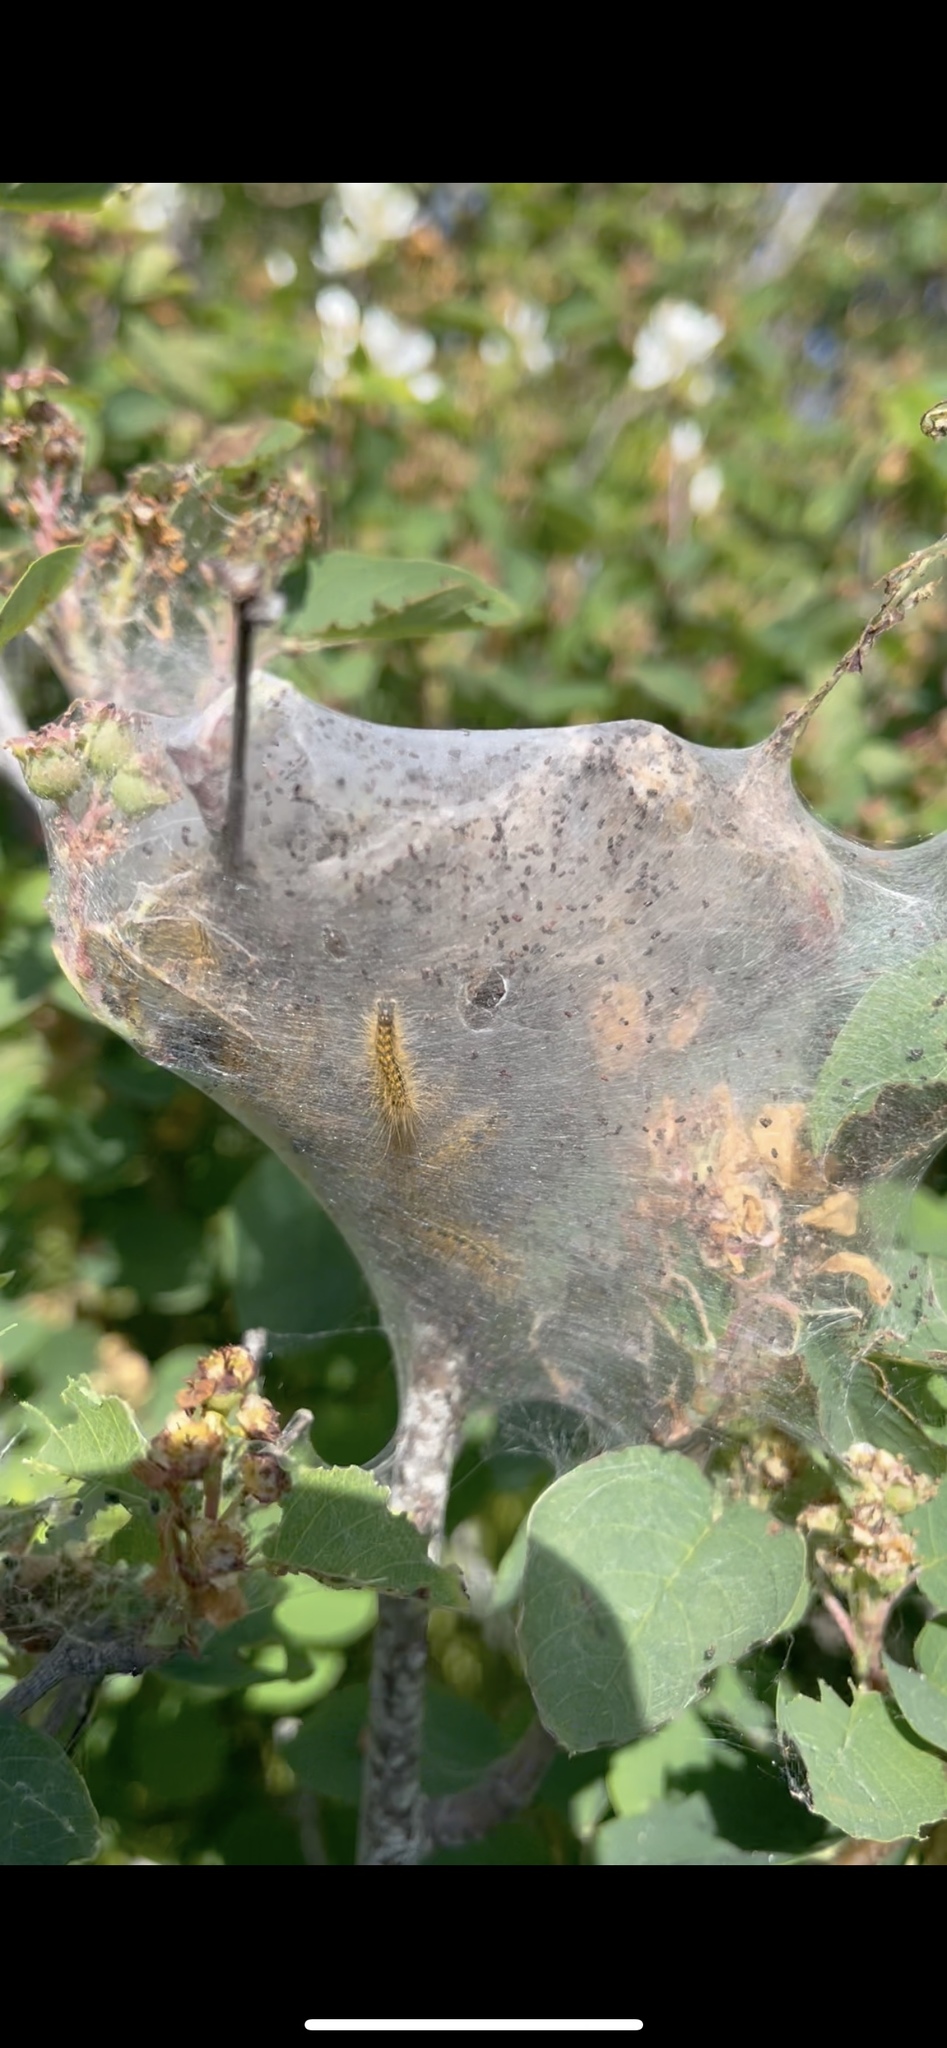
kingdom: Animalia
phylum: Arthropoda
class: Insecta
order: Lepidoptera
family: Lasiocampidae
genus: Malacosoma
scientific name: Malacosoma californica
